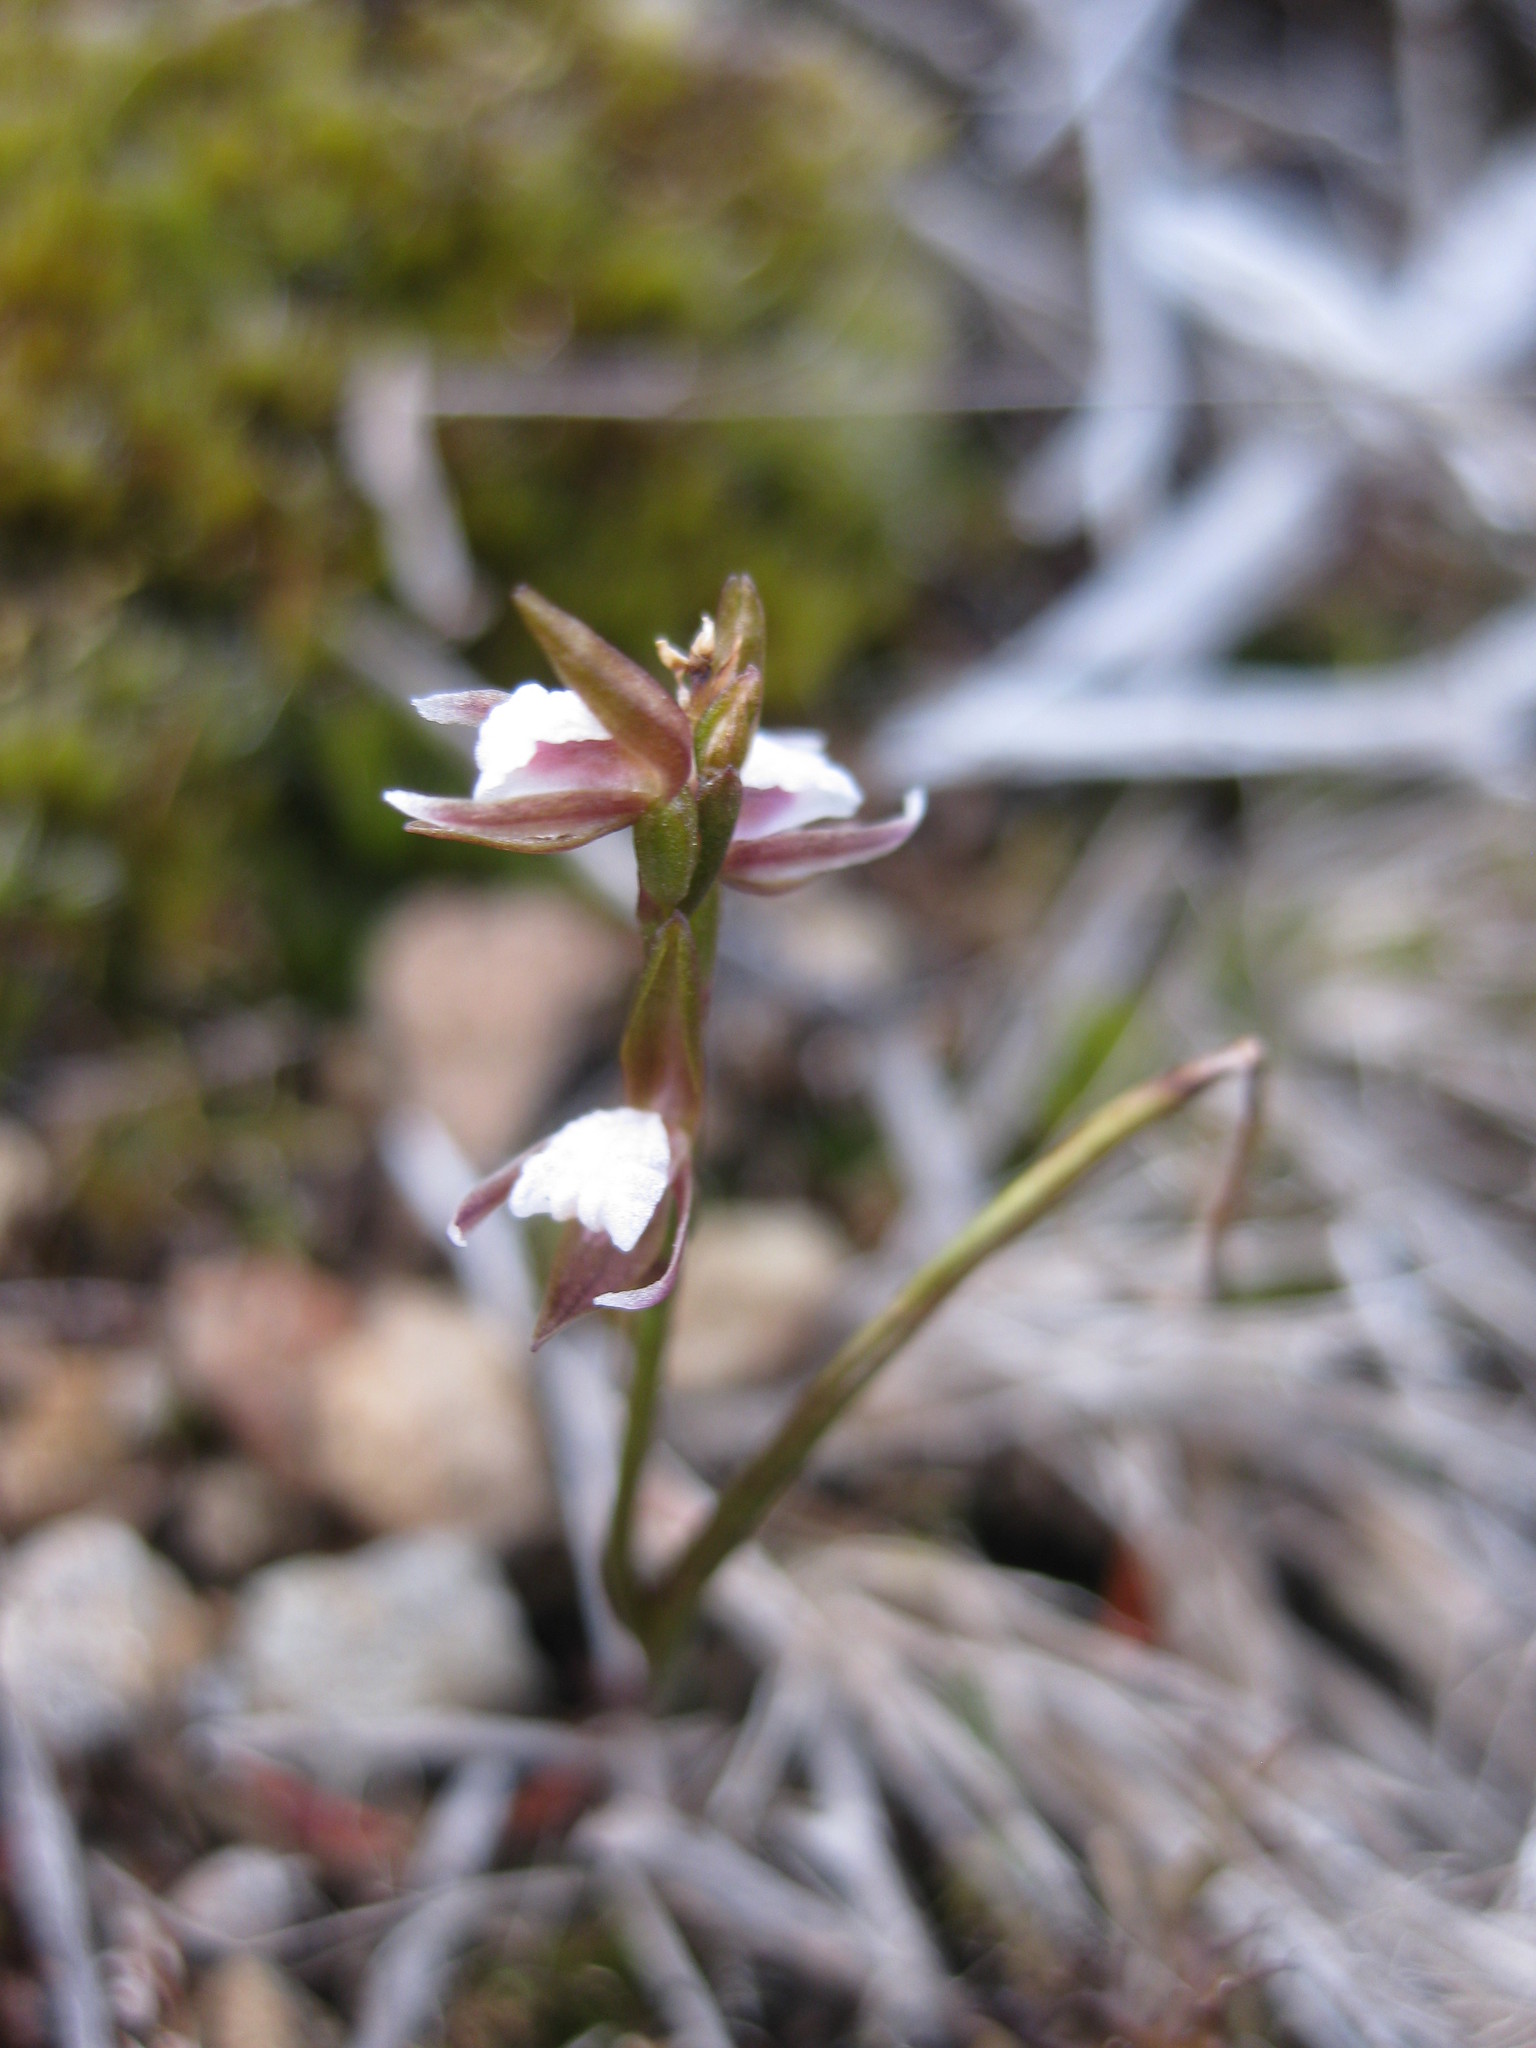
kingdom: Plantae
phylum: Tracheophyta
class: Liliopsida
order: Asparagales
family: Orchidaceae
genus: Prasophyllum
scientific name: Prasophyllum brevilabre
